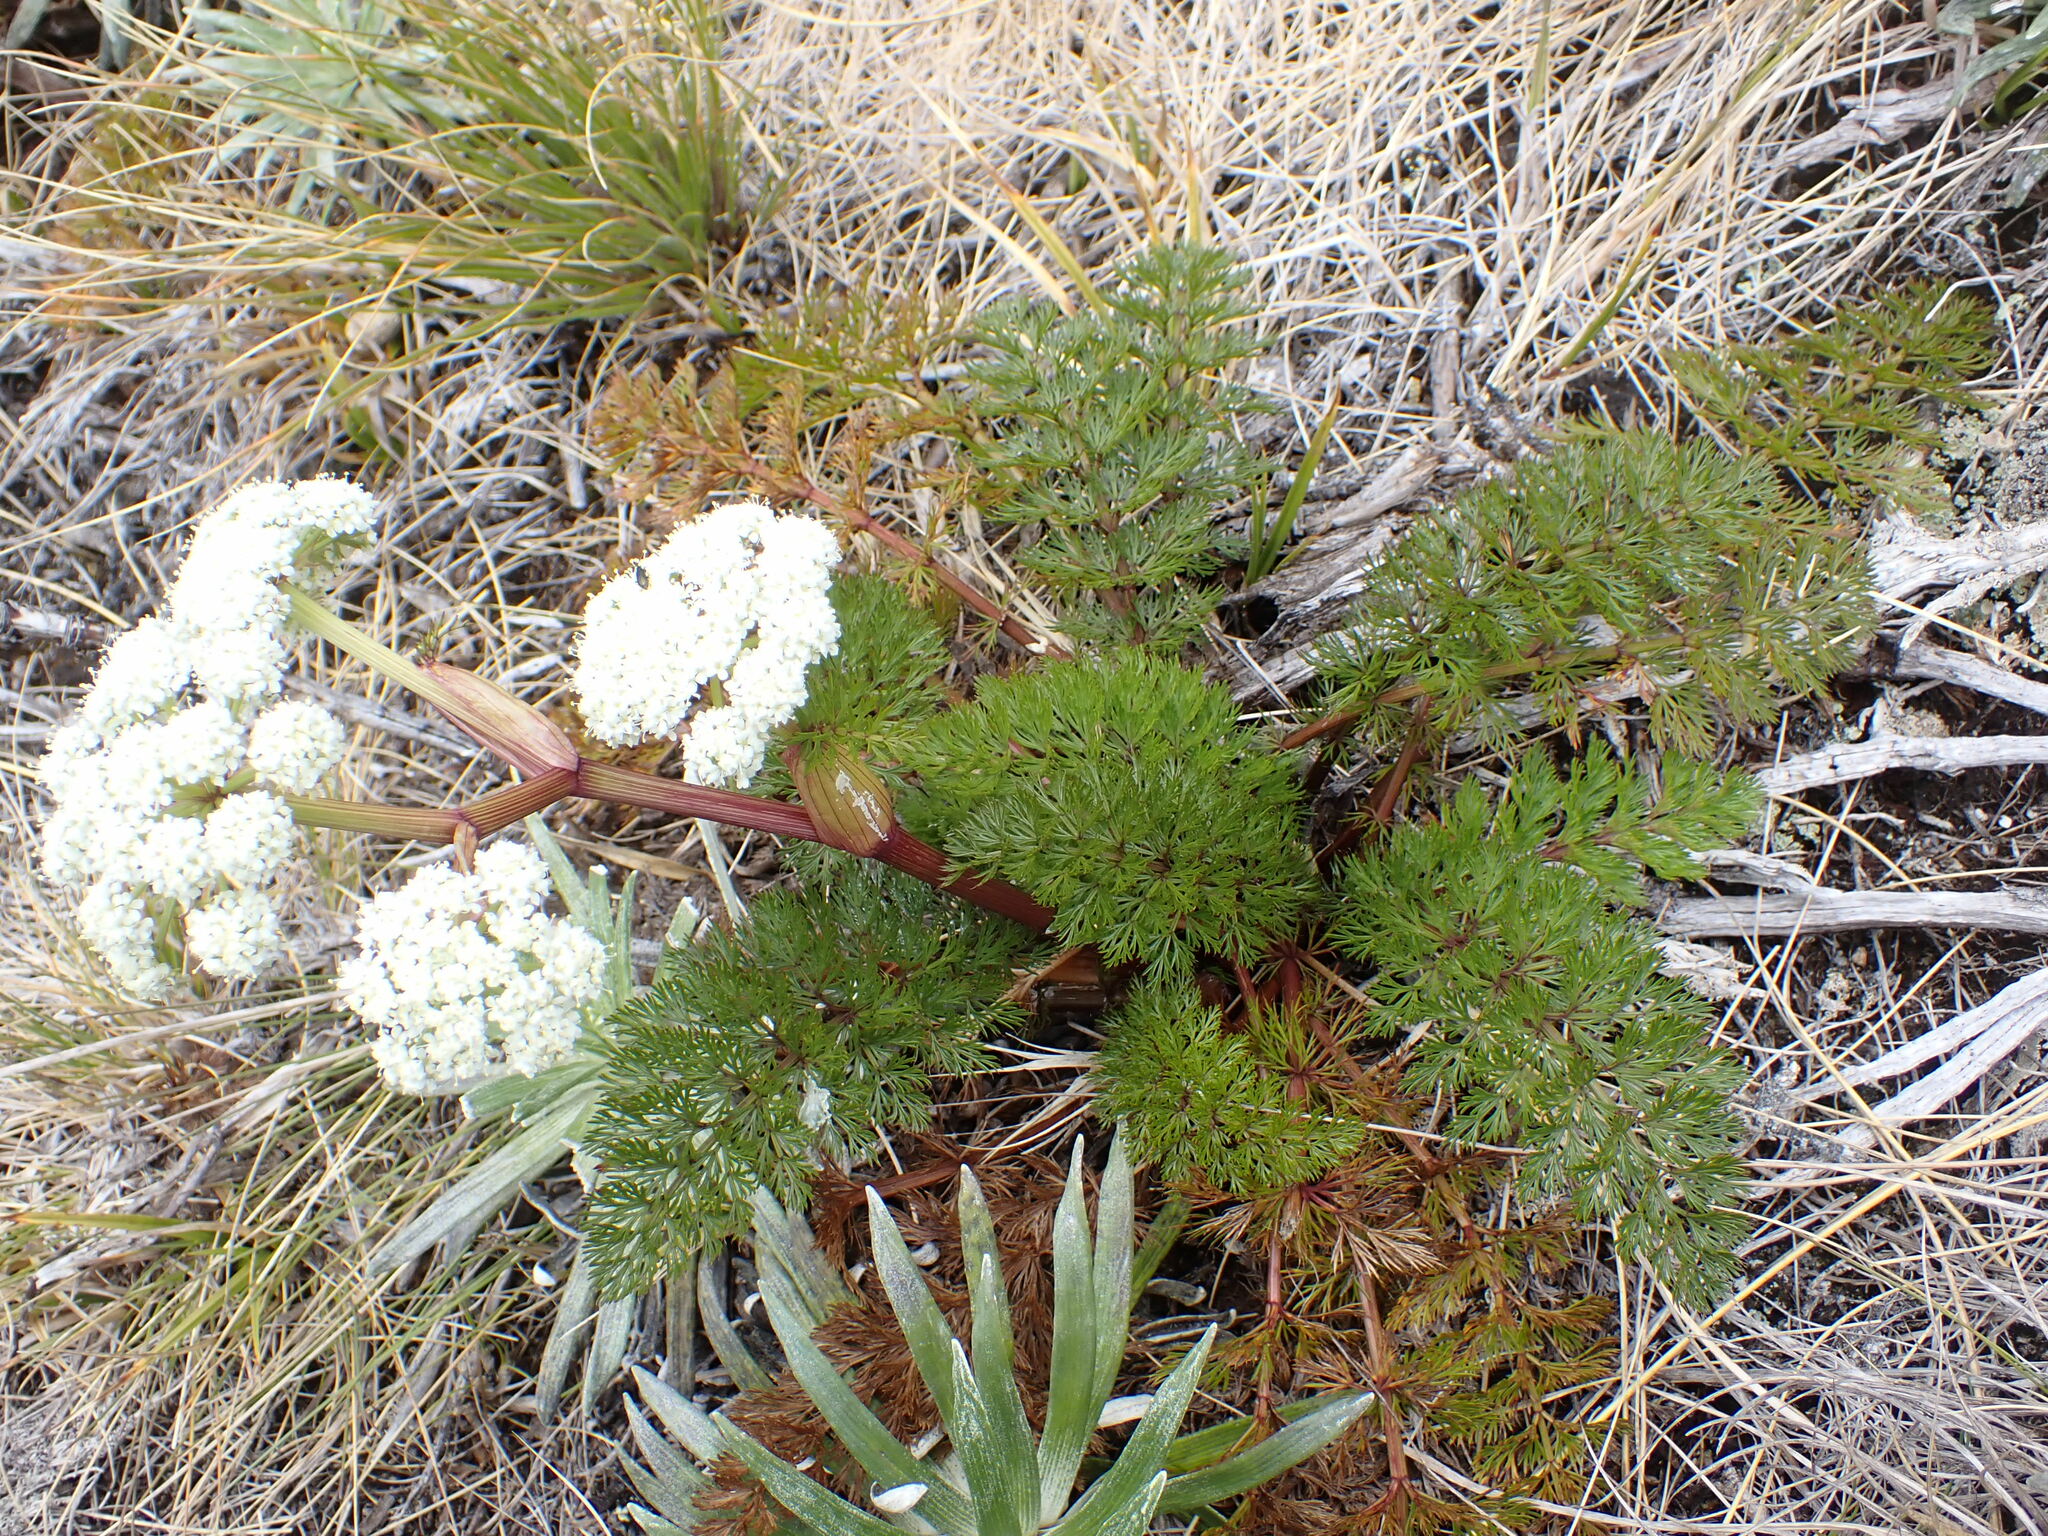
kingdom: Plantae
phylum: Tracheophyta
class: Magnoliopsida
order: Apiales
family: Apiaceae
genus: Anisotome
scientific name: Anisotome haastii
